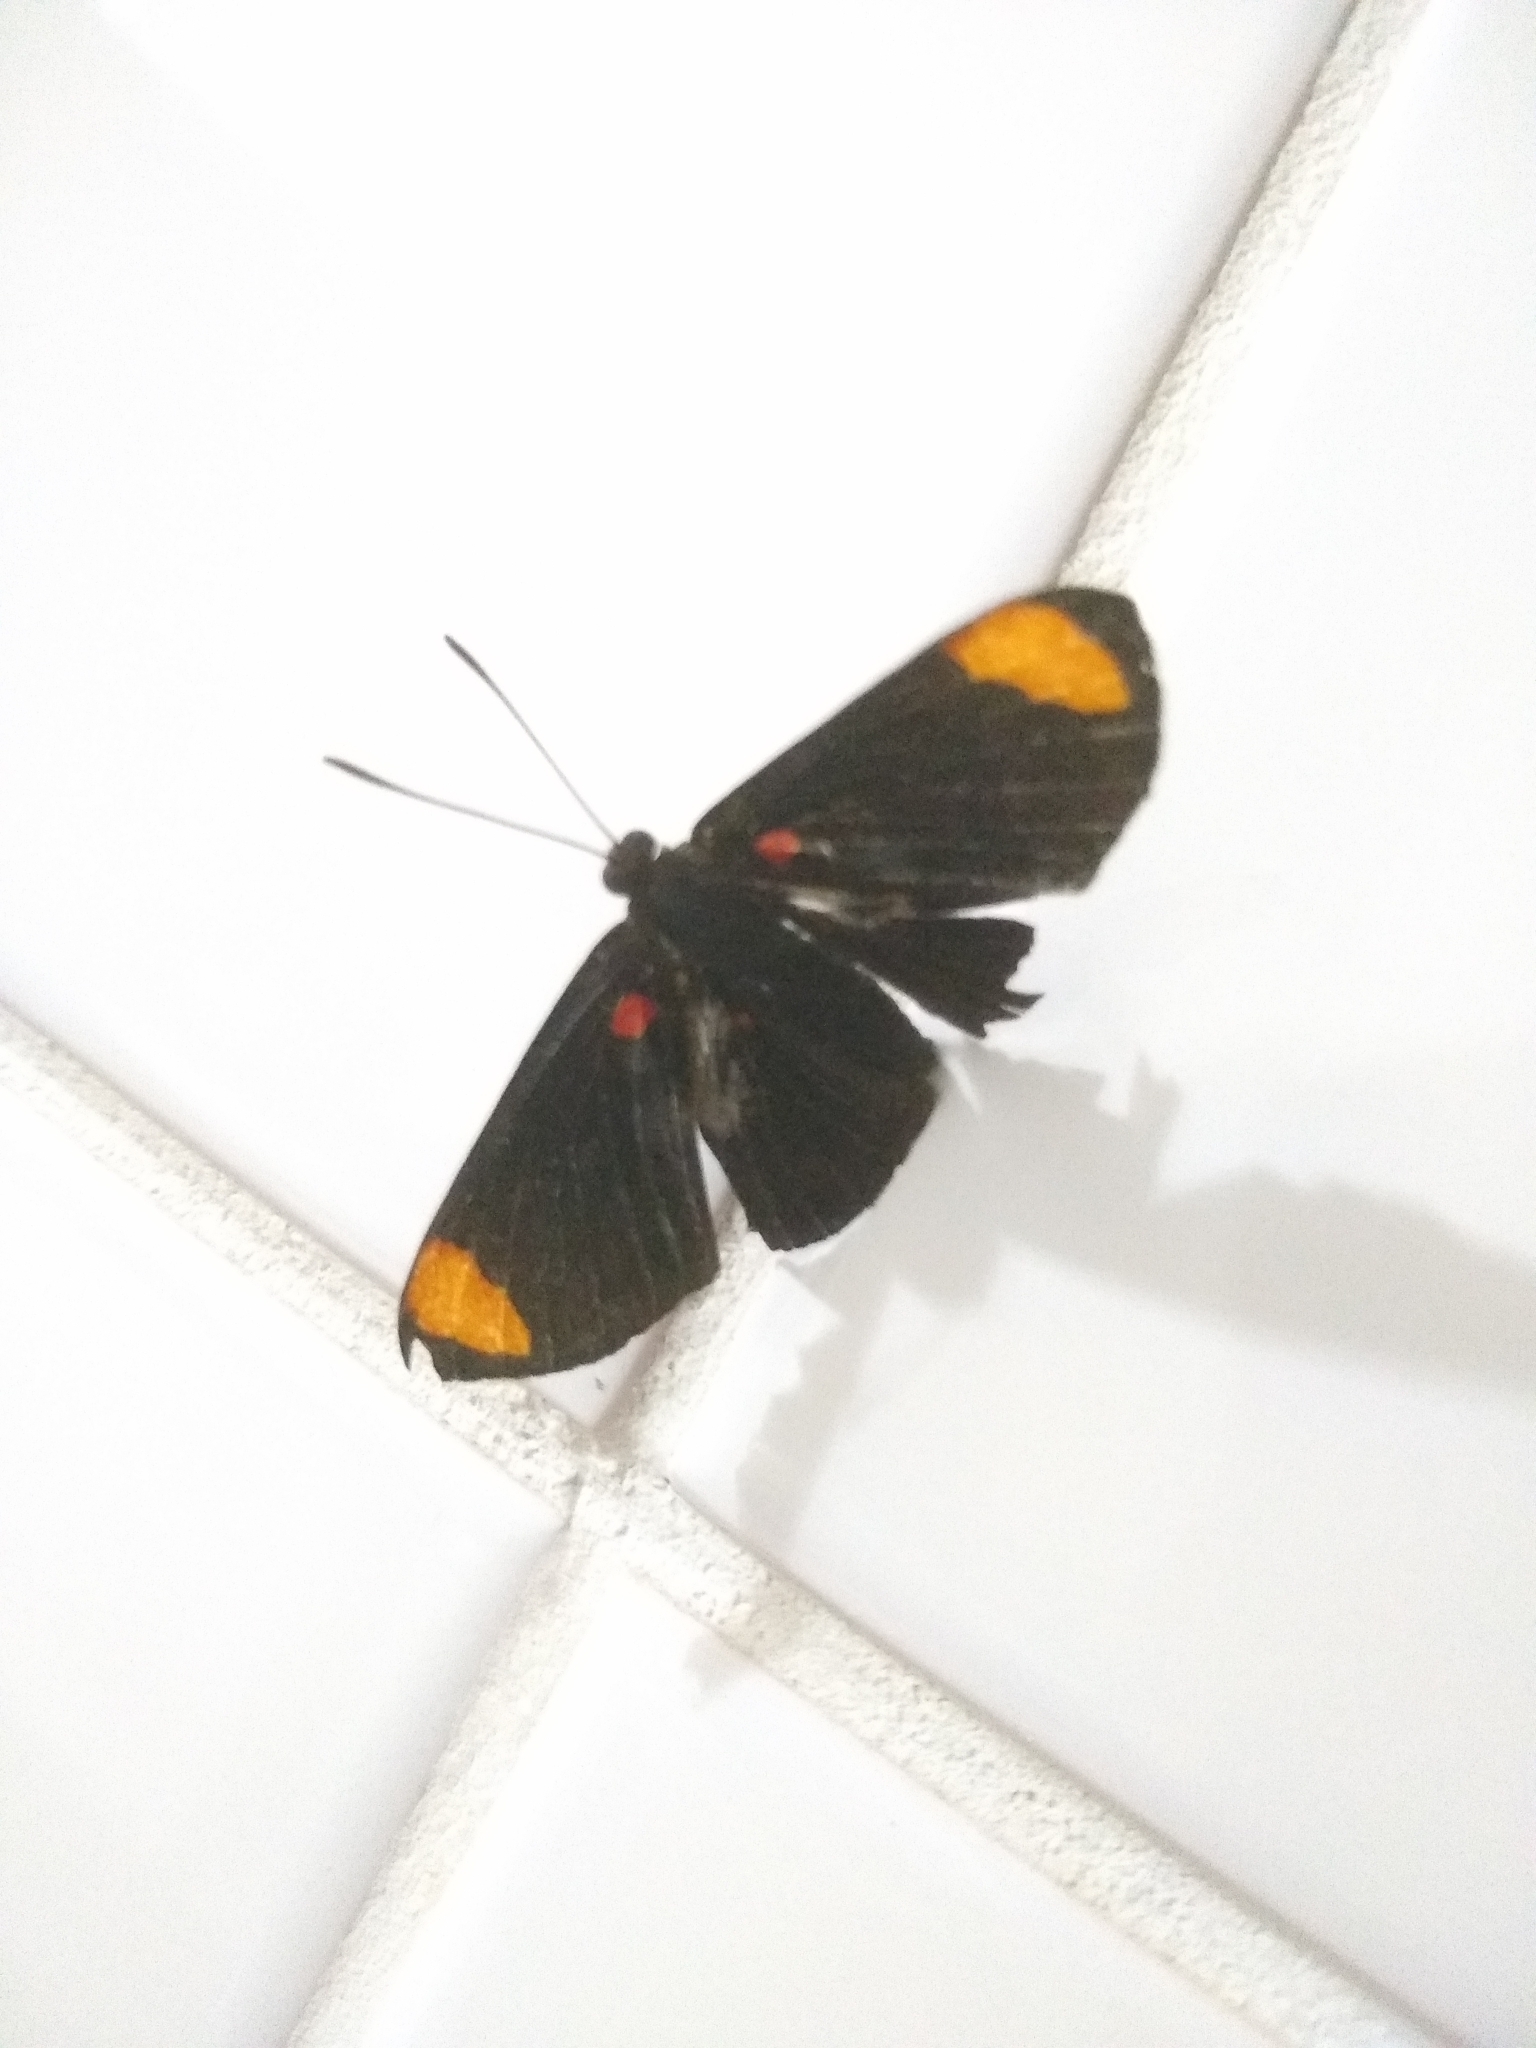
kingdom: Animalia
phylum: Arthropoda
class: Insecta
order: Lepidoptera
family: Lycaenidae
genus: Melanis
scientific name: Melanis
